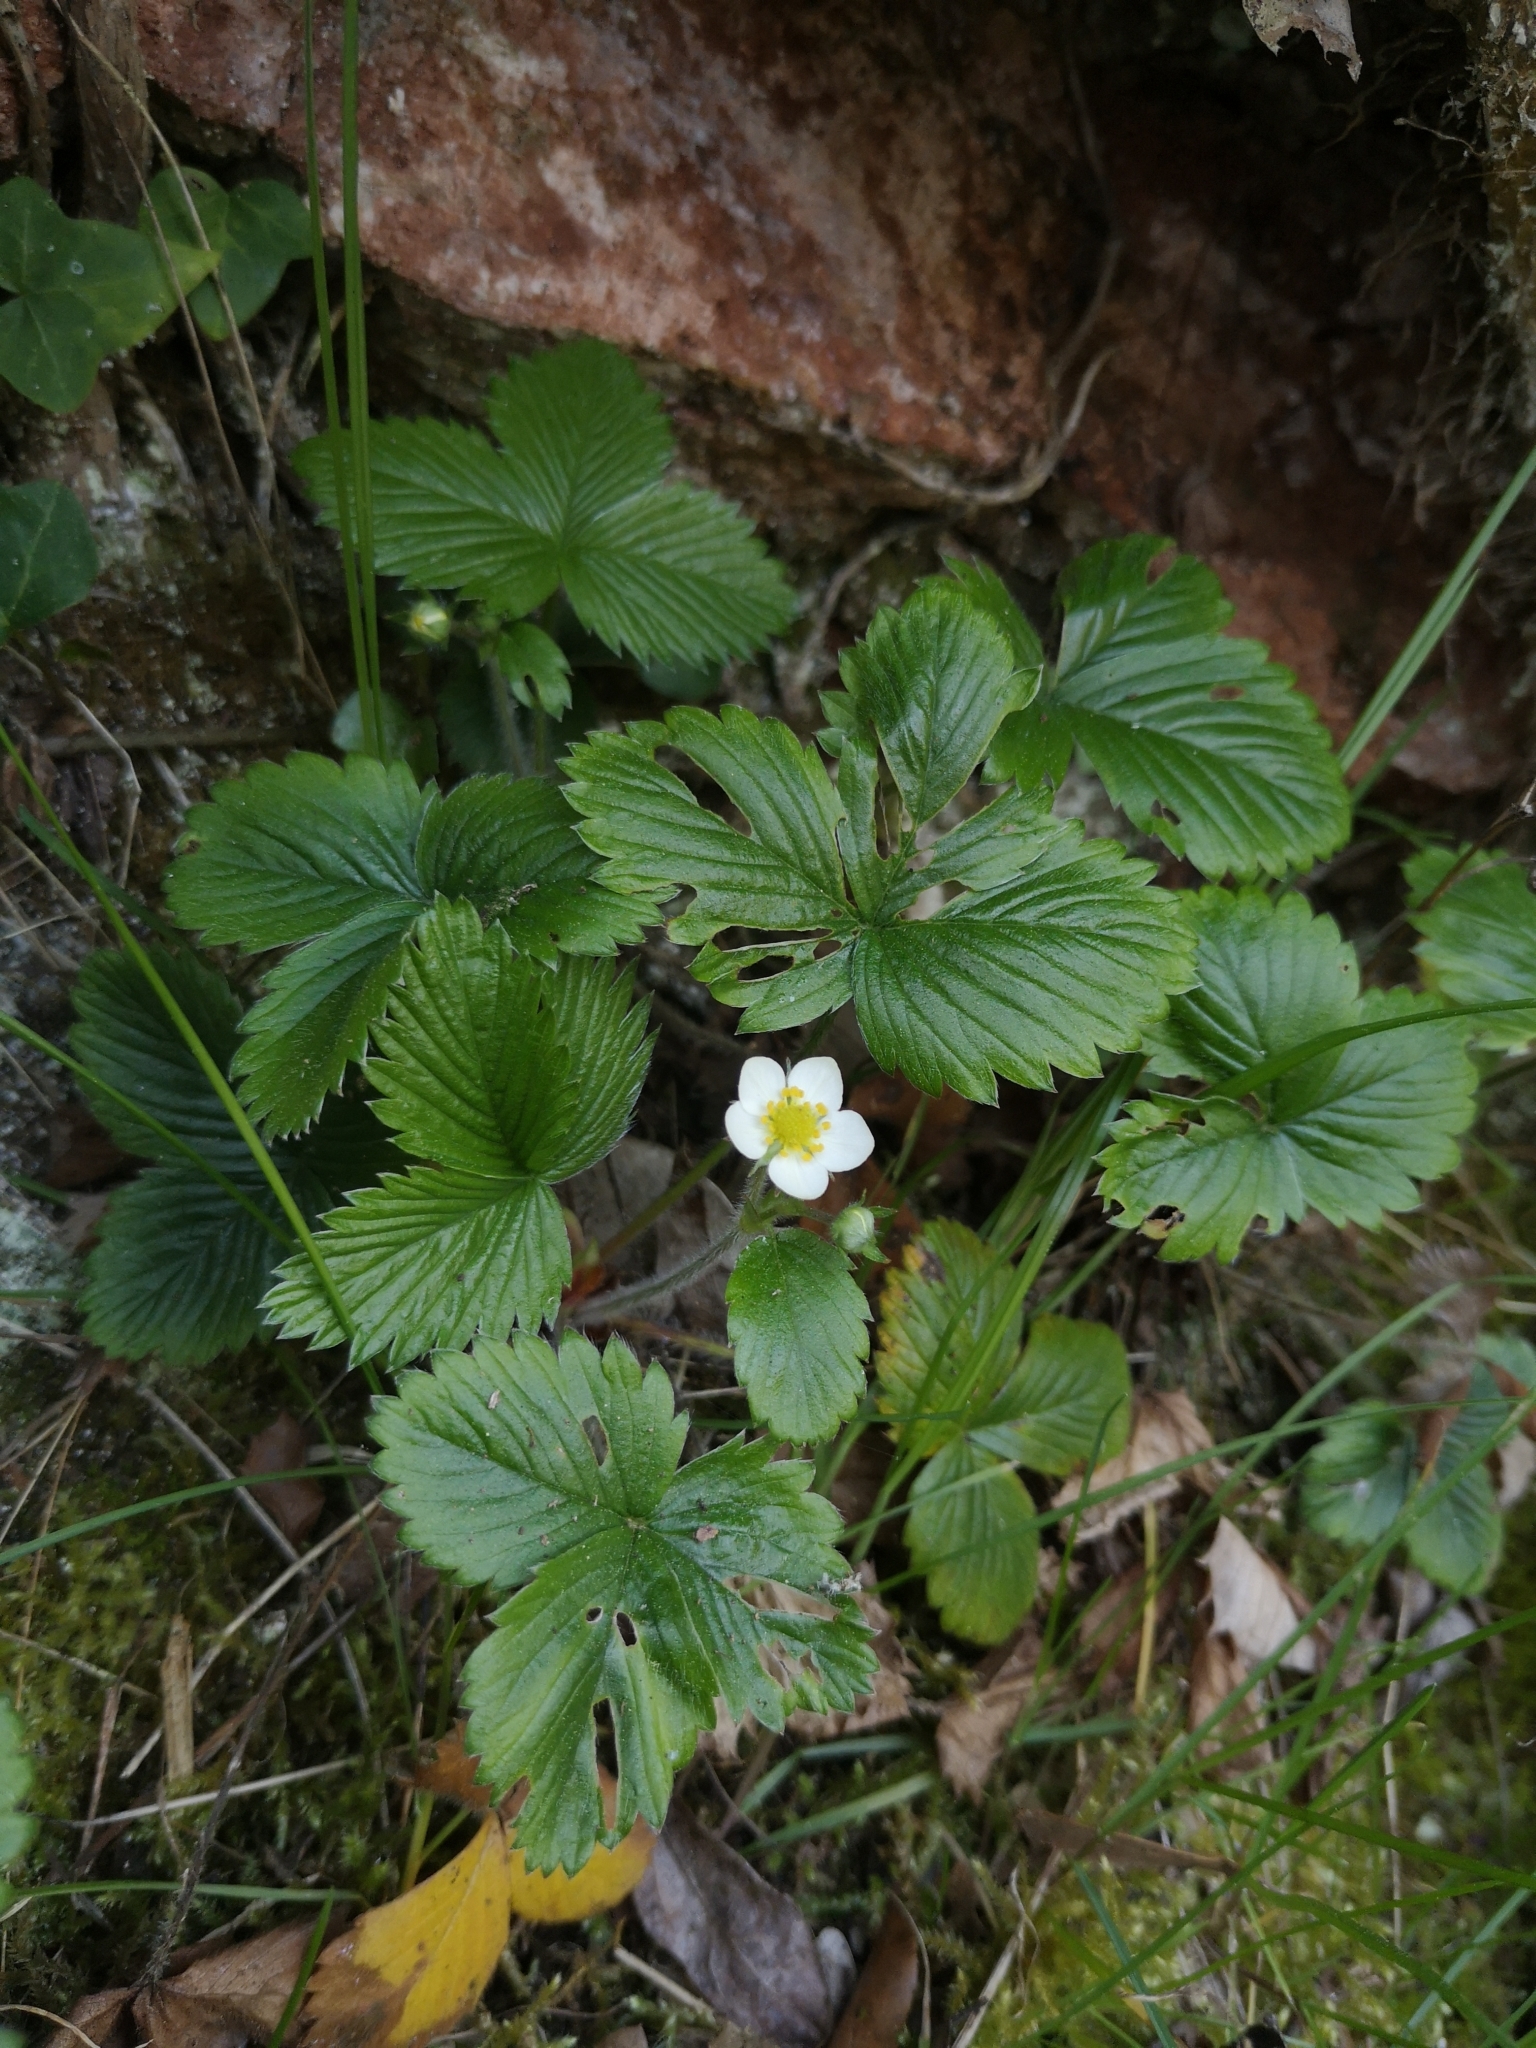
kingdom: Plantae
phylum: Tracheophyta
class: Magnoliopsida
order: Rosales
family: Rosaceae
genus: Fragaria
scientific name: Fragaria vesca
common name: Wild strawberry
